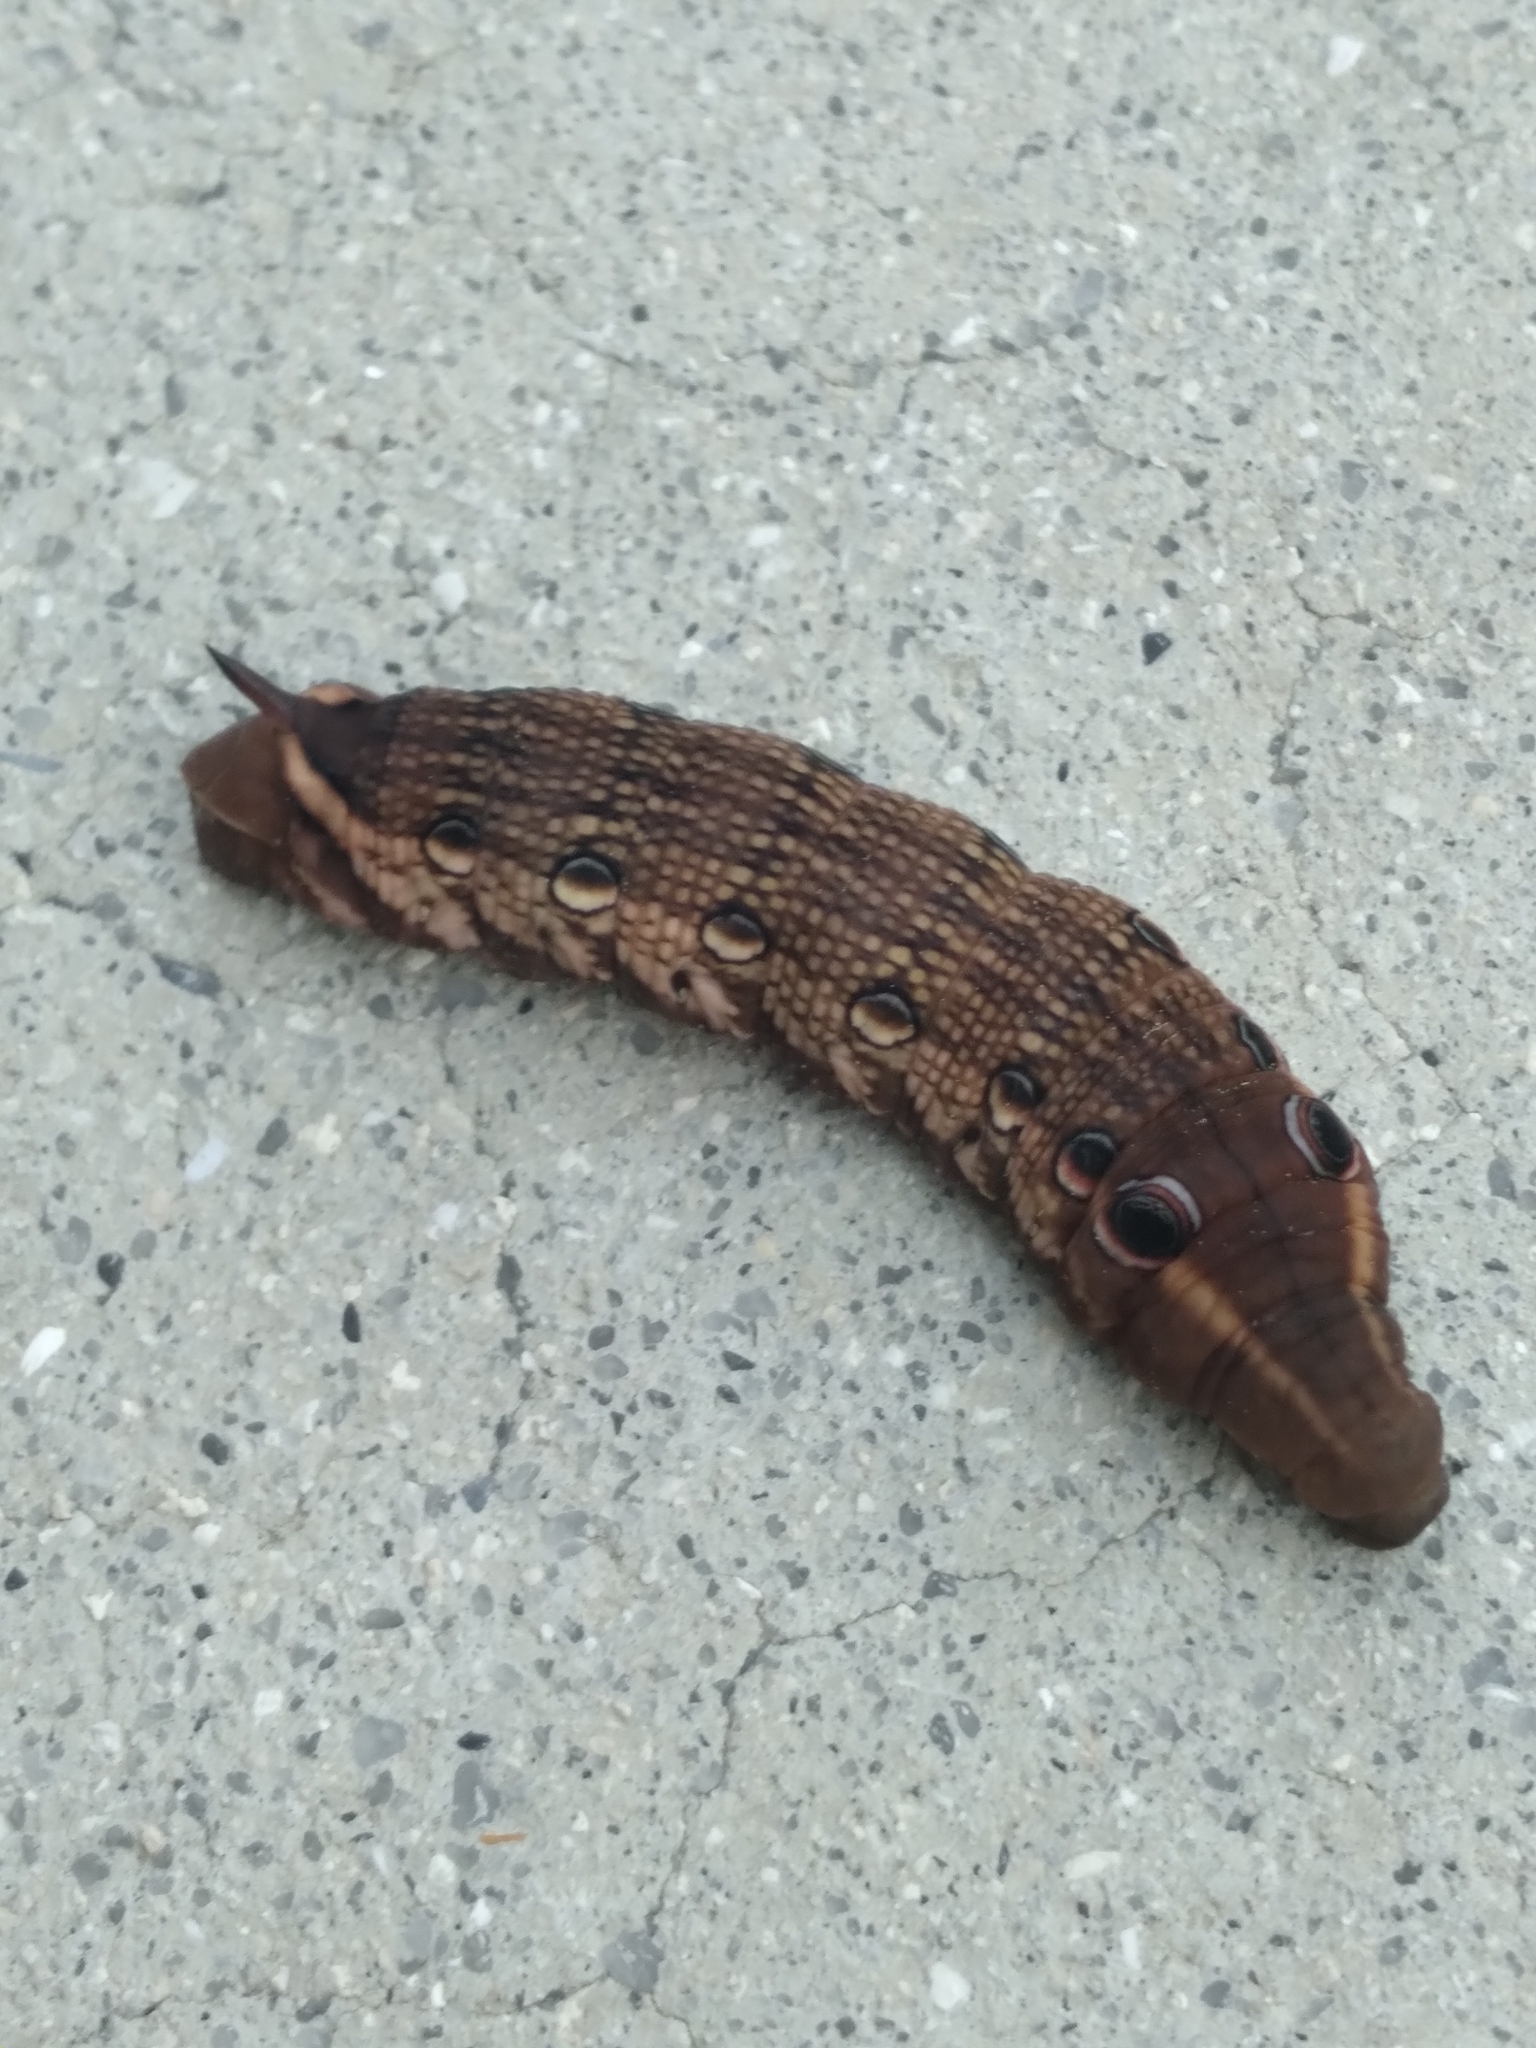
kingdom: Animalia
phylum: Arthropoda
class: Insecta
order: Lepidoptera
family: Sphingidae
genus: Xylophanes
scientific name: Xylophanes tersa
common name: Tersa sphinx
